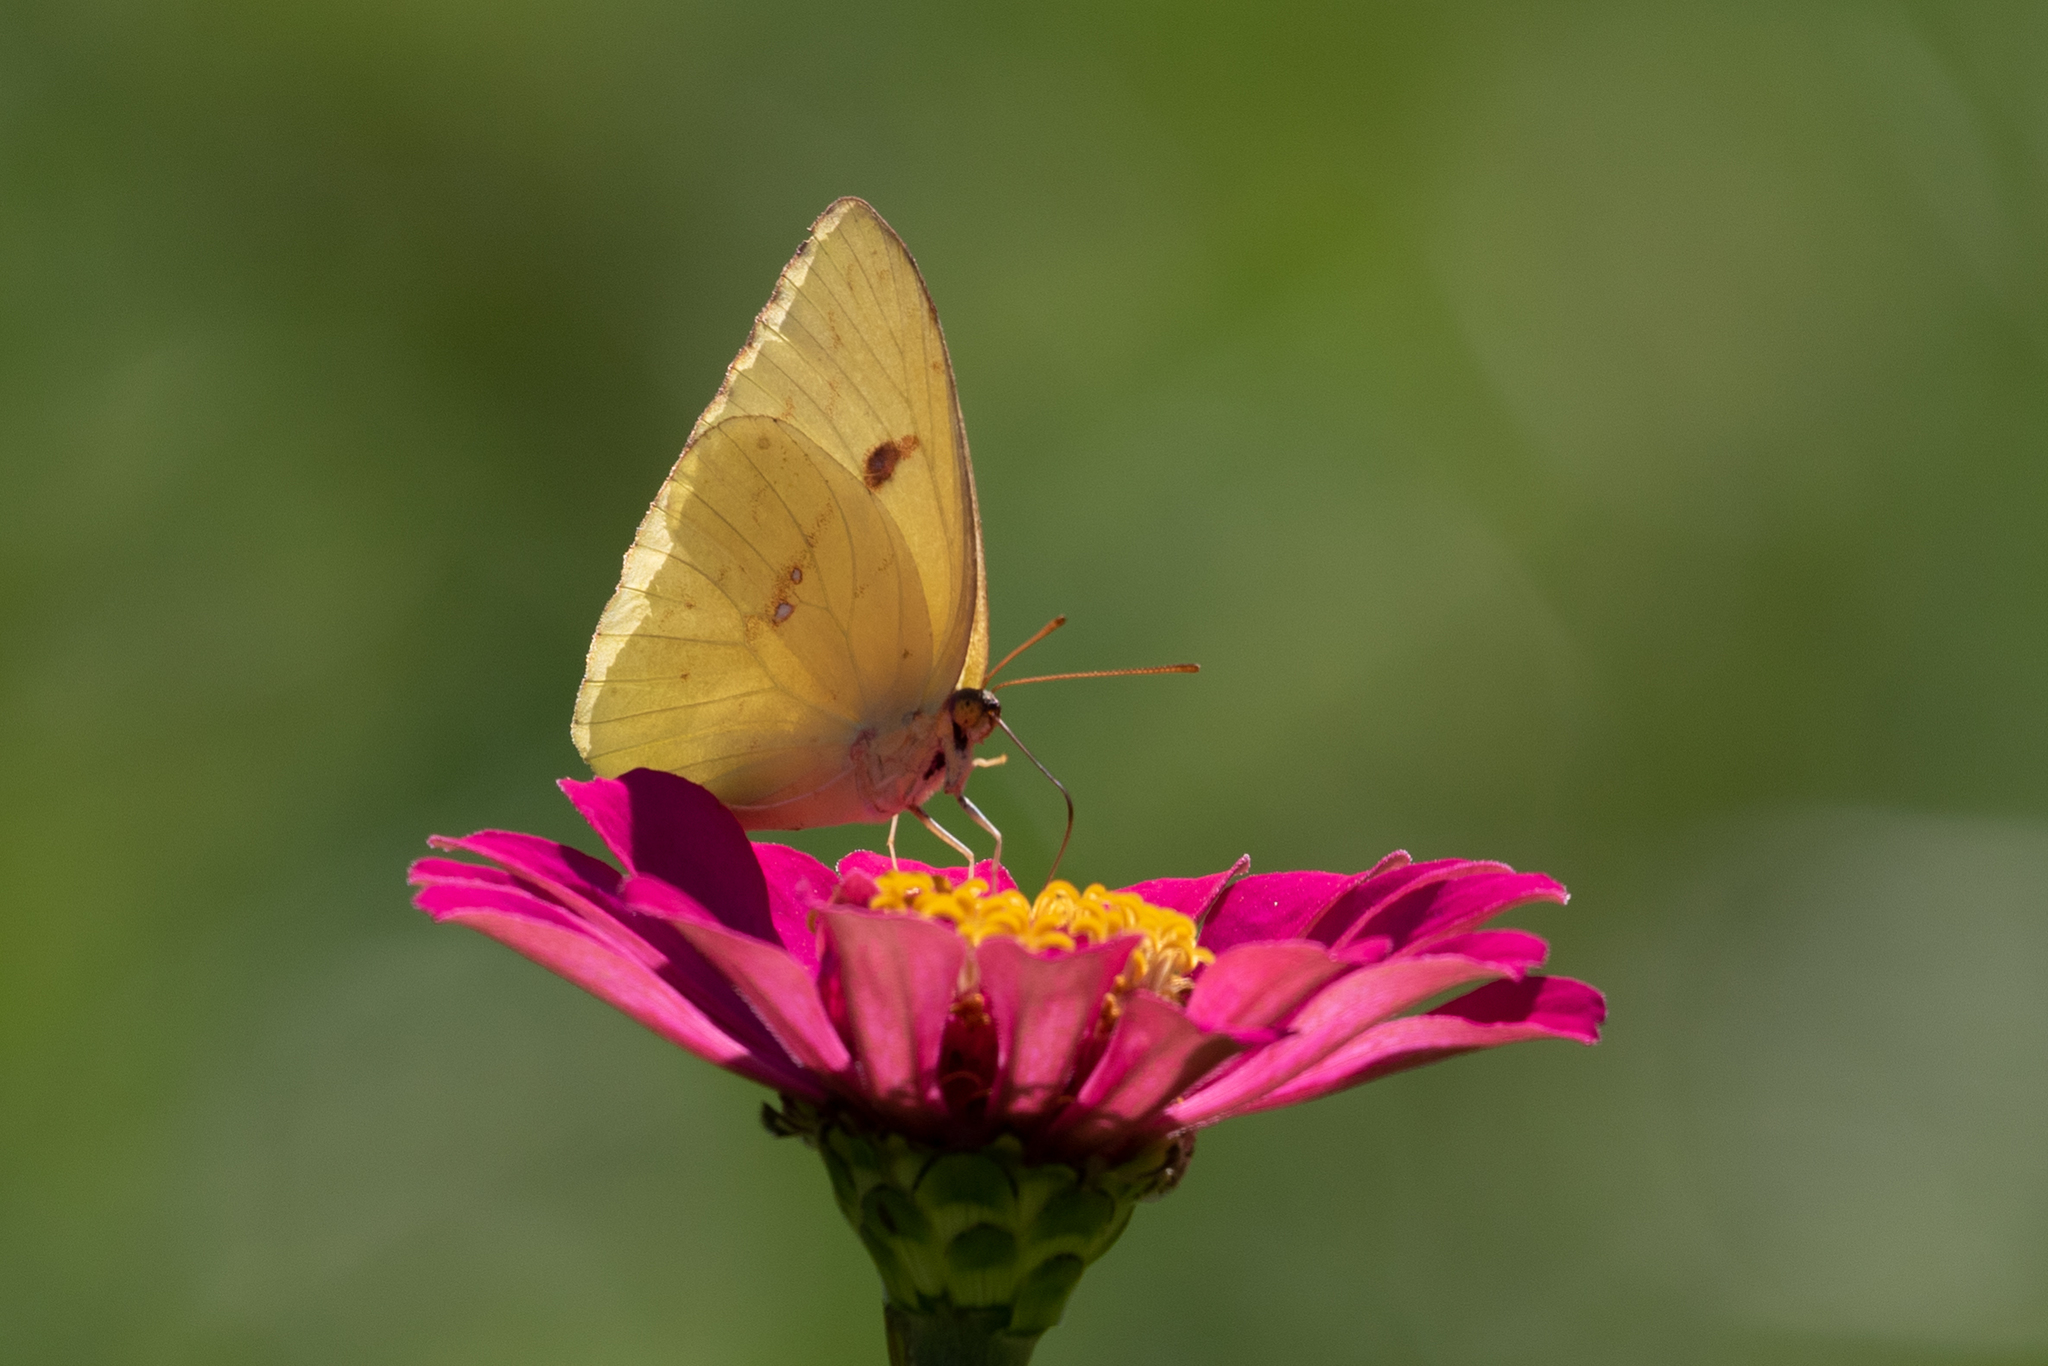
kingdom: Animalia
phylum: Arthropoda
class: Insecta
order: Lepidoptera
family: Pieridae
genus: Phoebis
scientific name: Phoebis sennae
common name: Cloudless sulphur
